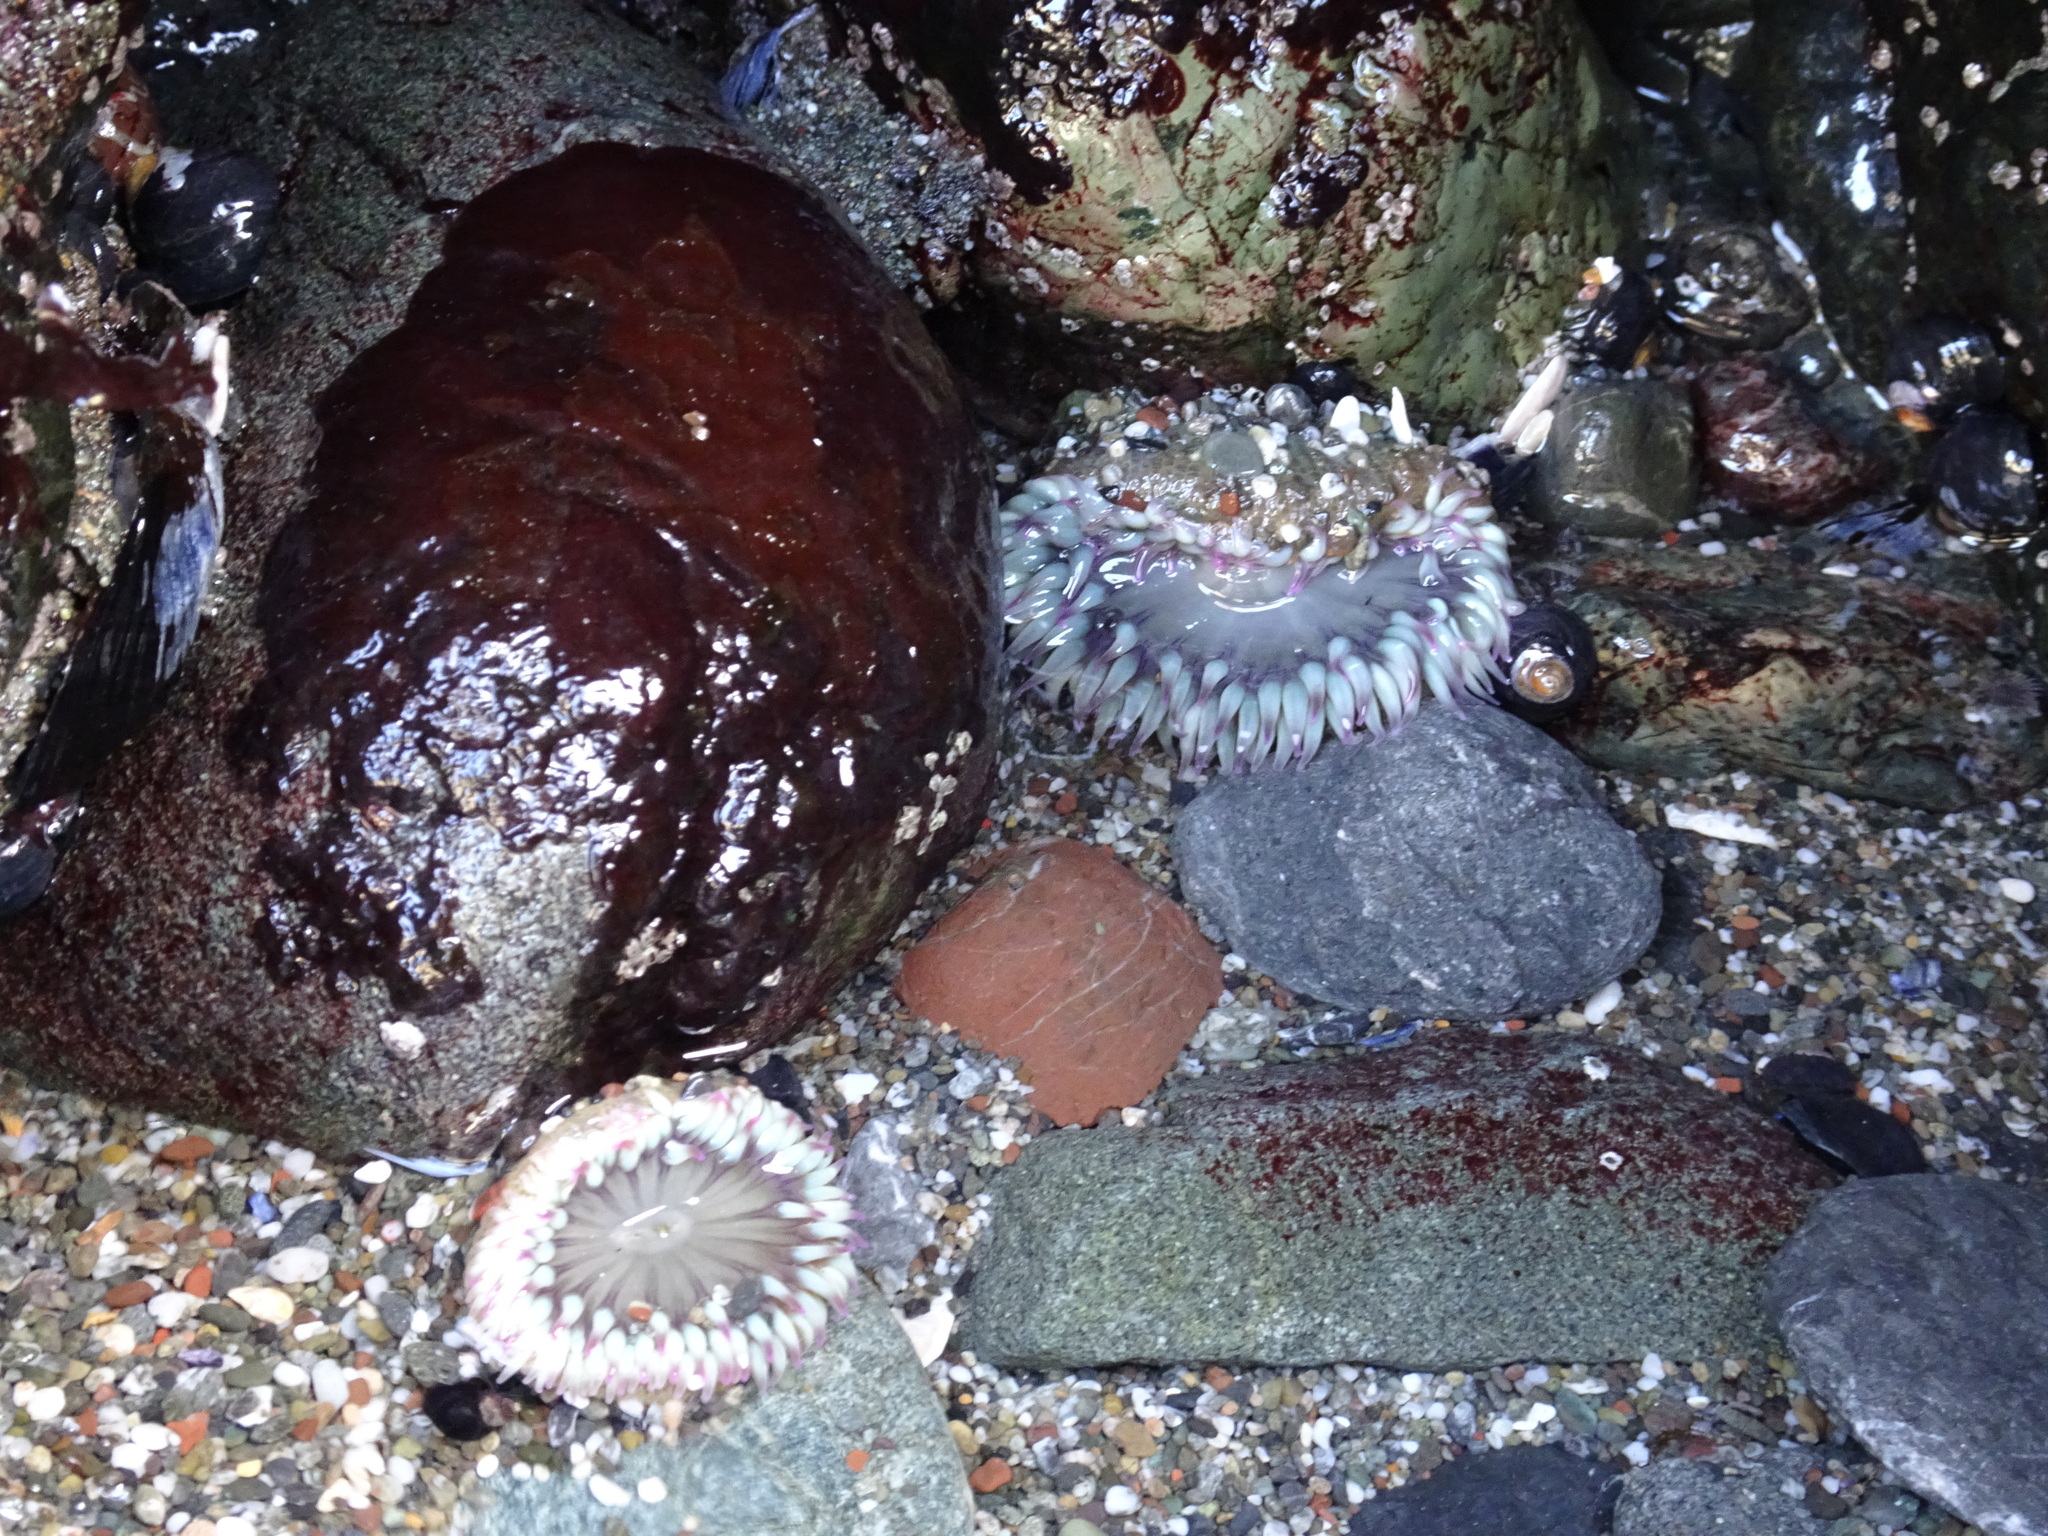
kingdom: Animalia
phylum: Cnidaria
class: Anthozoa
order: Actiniaria
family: Actiniidae
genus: Anthopleura
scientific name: Anthopleura elegantissima
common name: Clonal anemone
